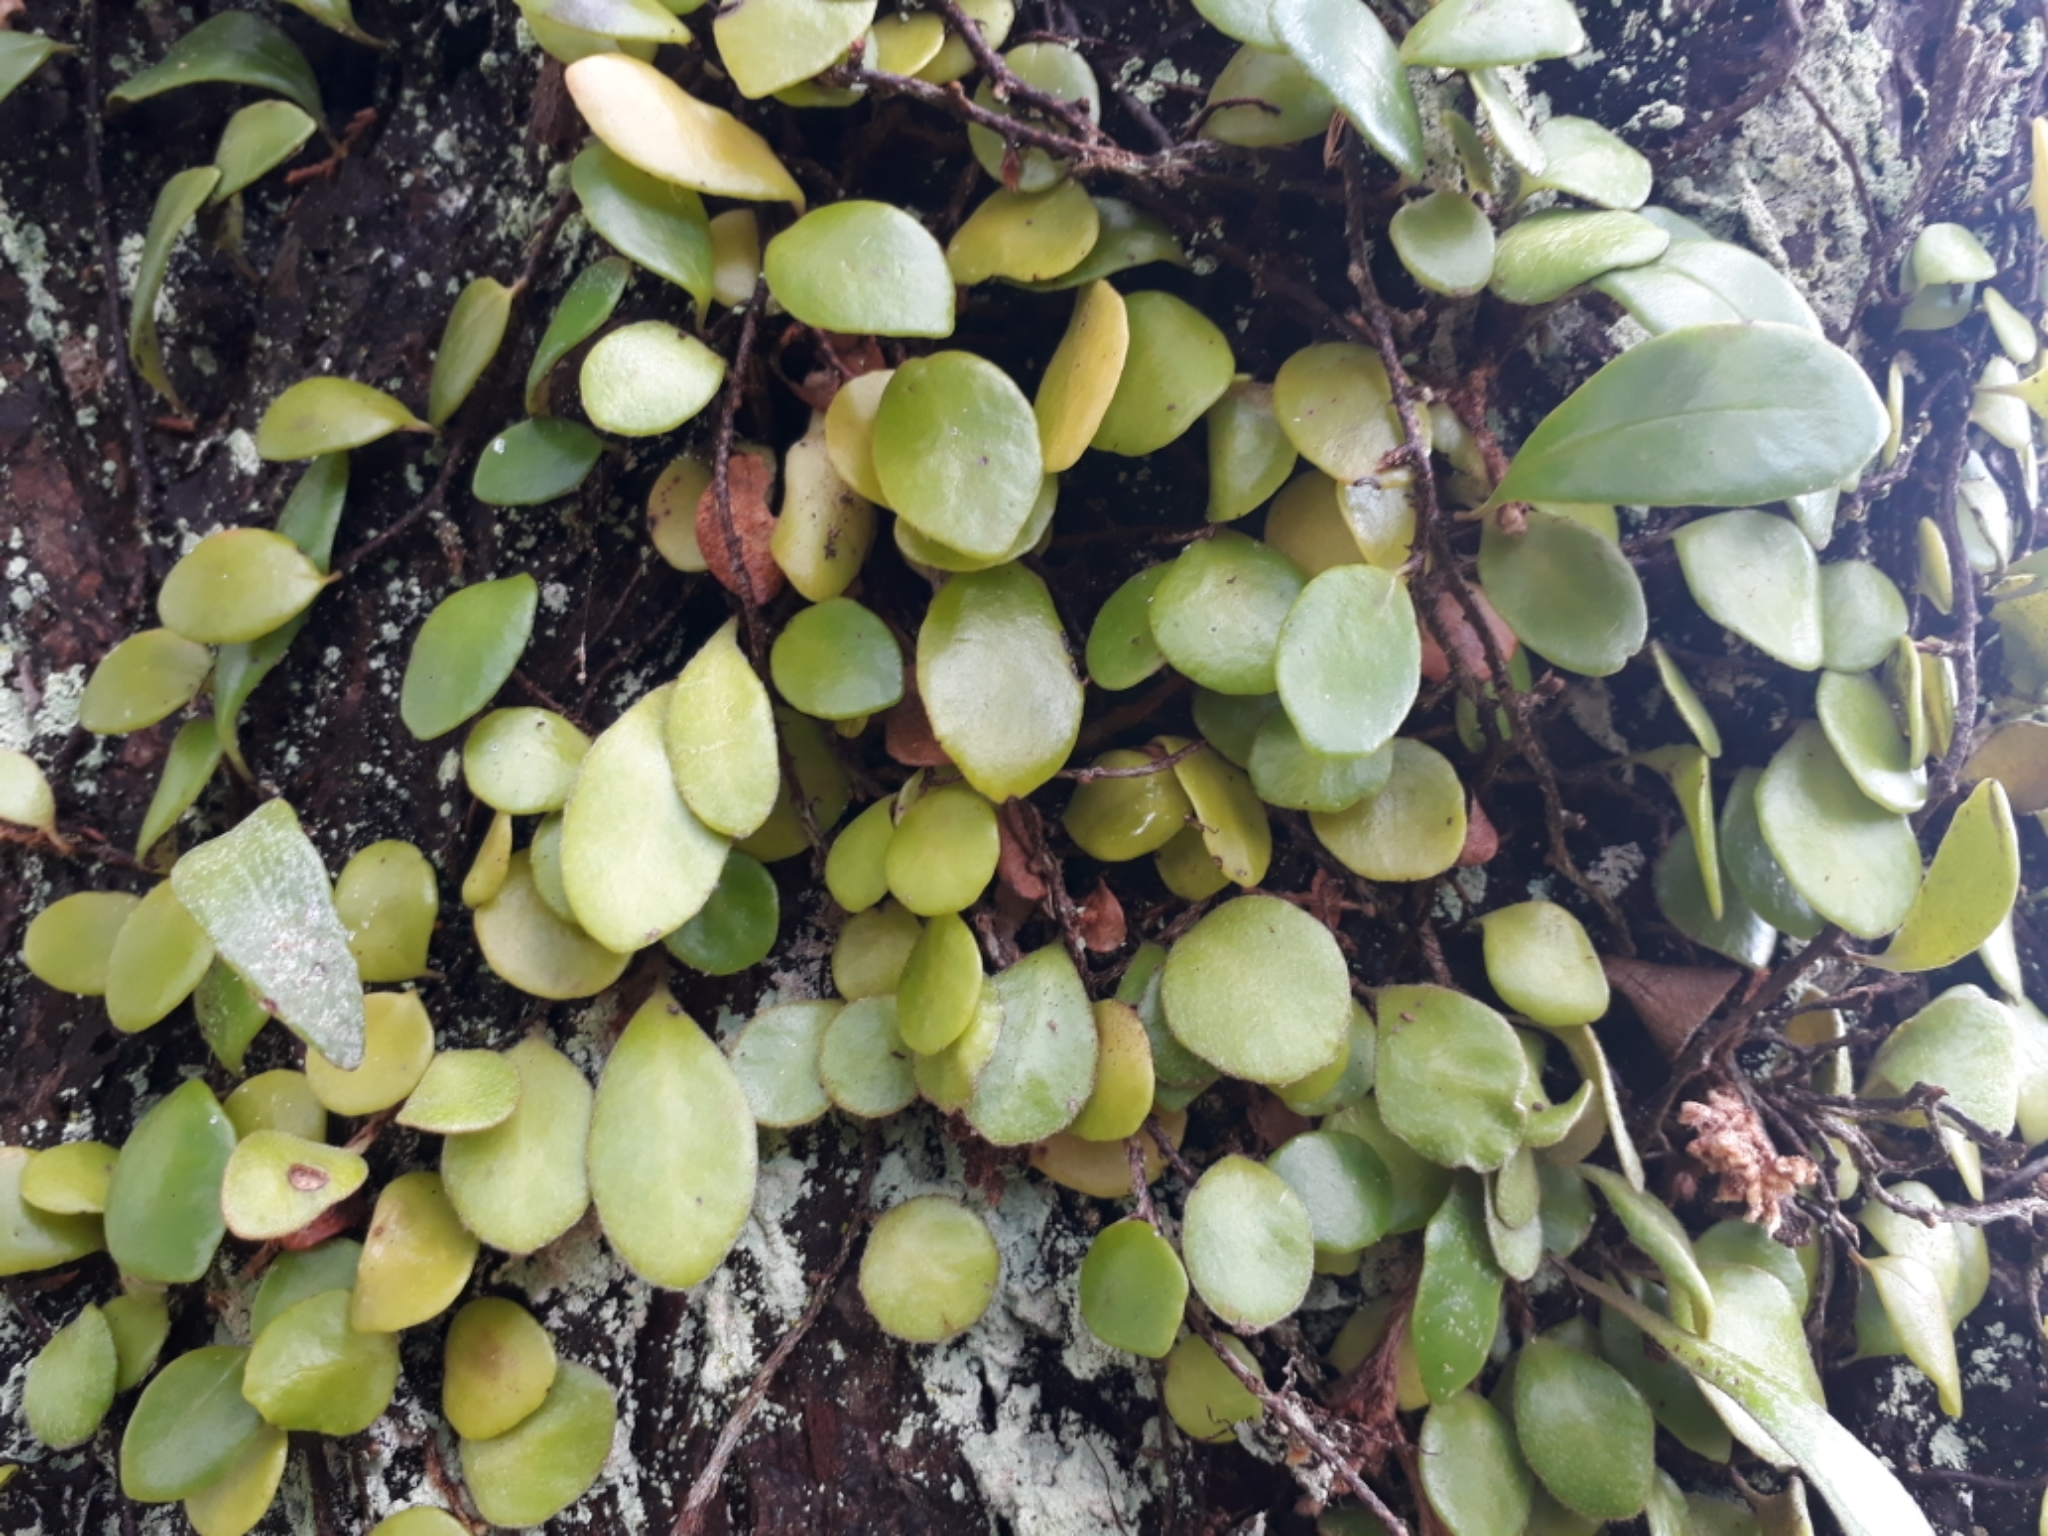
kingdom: Plantae
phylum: Tracheophyta
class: Polypodiopsida
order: Polypodiales
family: Polypodiaceae
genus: Pyrrosia
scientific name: Pyrrosia eleagnifolia
